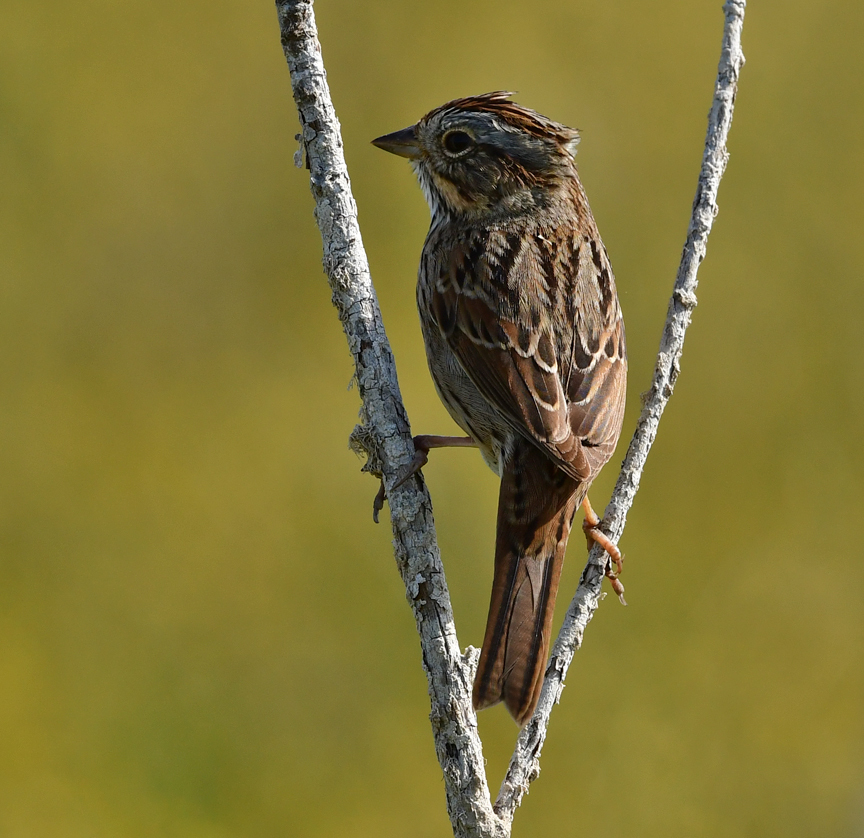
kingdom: Animalia
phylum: Chordata
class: Aves
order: Passeriformes
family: Passerellidae
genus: Melospiza
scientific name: Melospiza lincolnii
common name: Lincoln's sparrow
